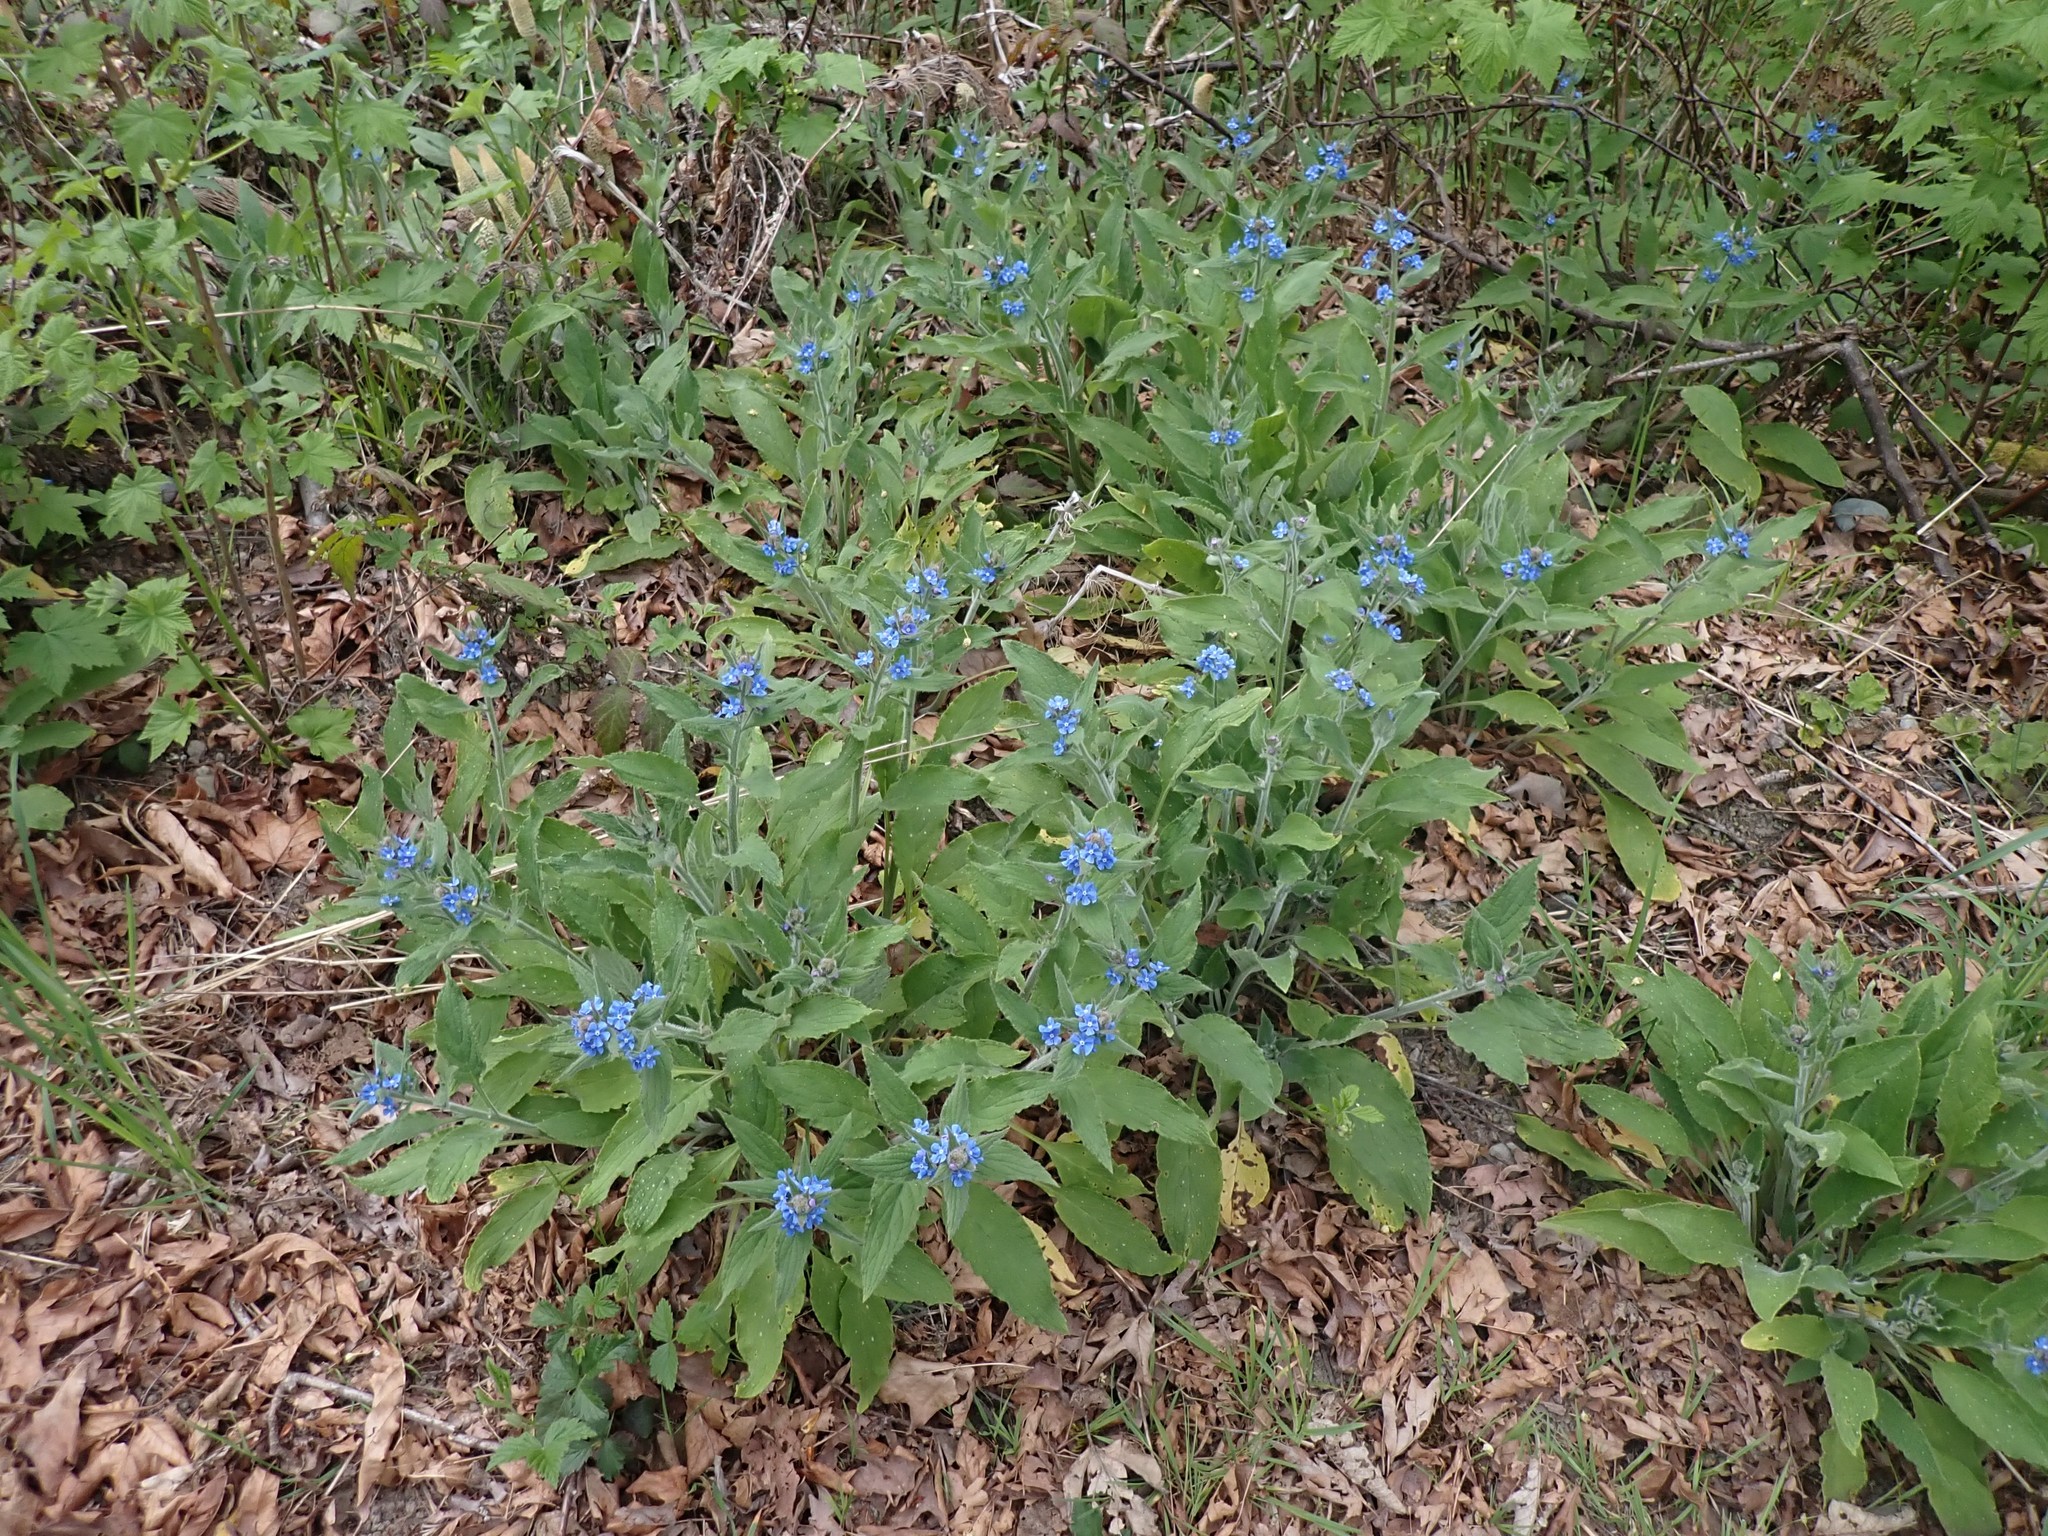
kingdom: Plantae
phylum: Tracheophyta
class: Magnoliopsida
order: Boraginales
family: Boraginaceae
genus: Pentaglottis
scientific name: Pentaglottis sempervirens
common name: Green alkanet
